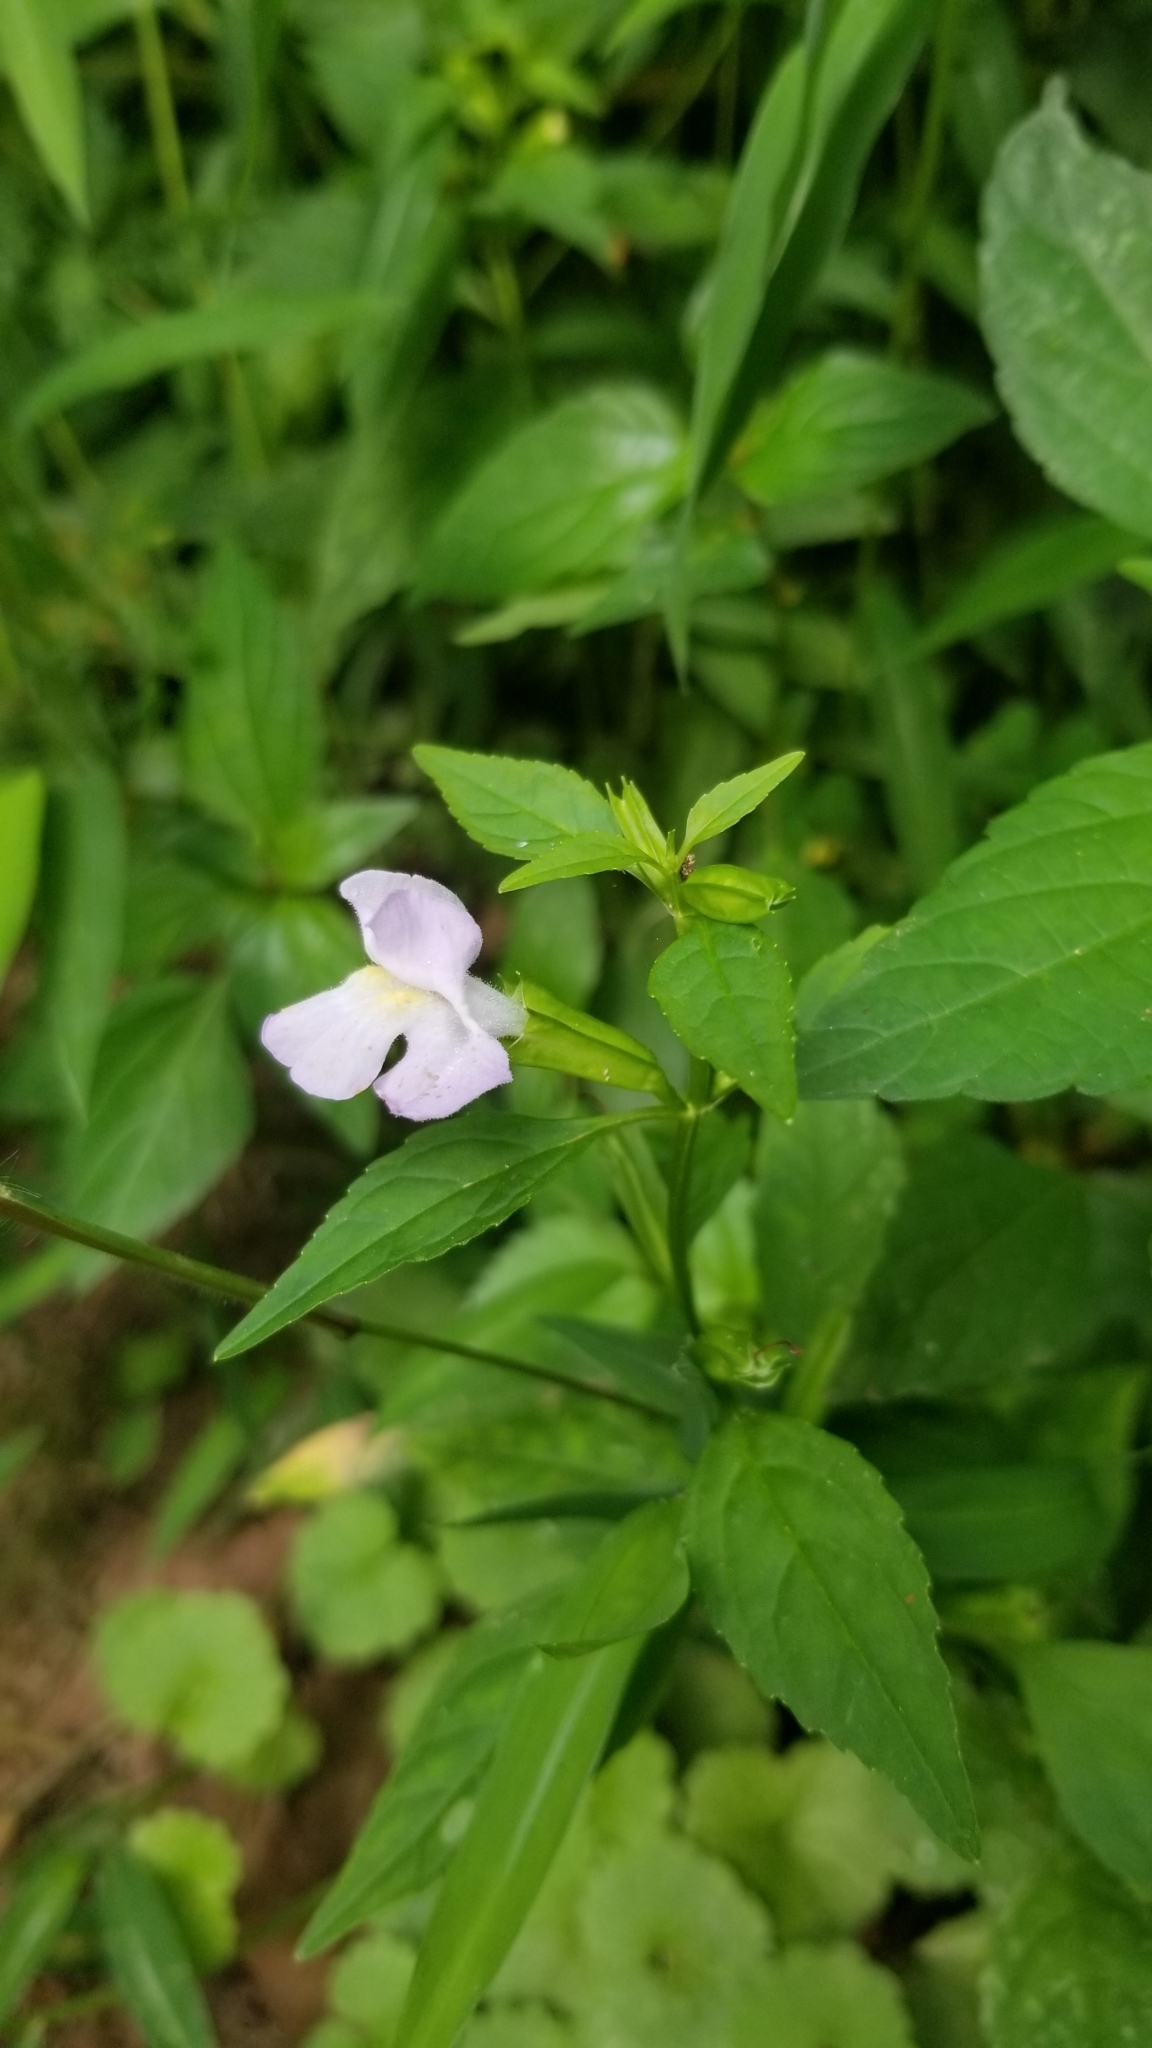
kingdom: Plantae
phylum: Tracheophyta
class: Magnoliopsida
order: Lamiales
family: Phrymaceae
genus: Mimulus
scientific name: Mimulus alatus
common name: Sharp-wing monkey-flower
